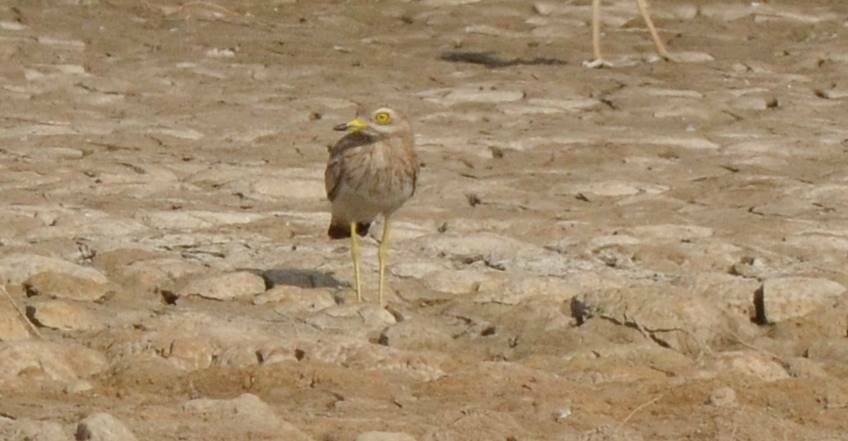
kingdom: Animalia
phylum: Chordata
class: Aves
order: Charadriiformes
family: Burhinidae
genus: Burhinus
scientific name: Burhinus oedicnemus
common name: Eurasian stone-curlew
